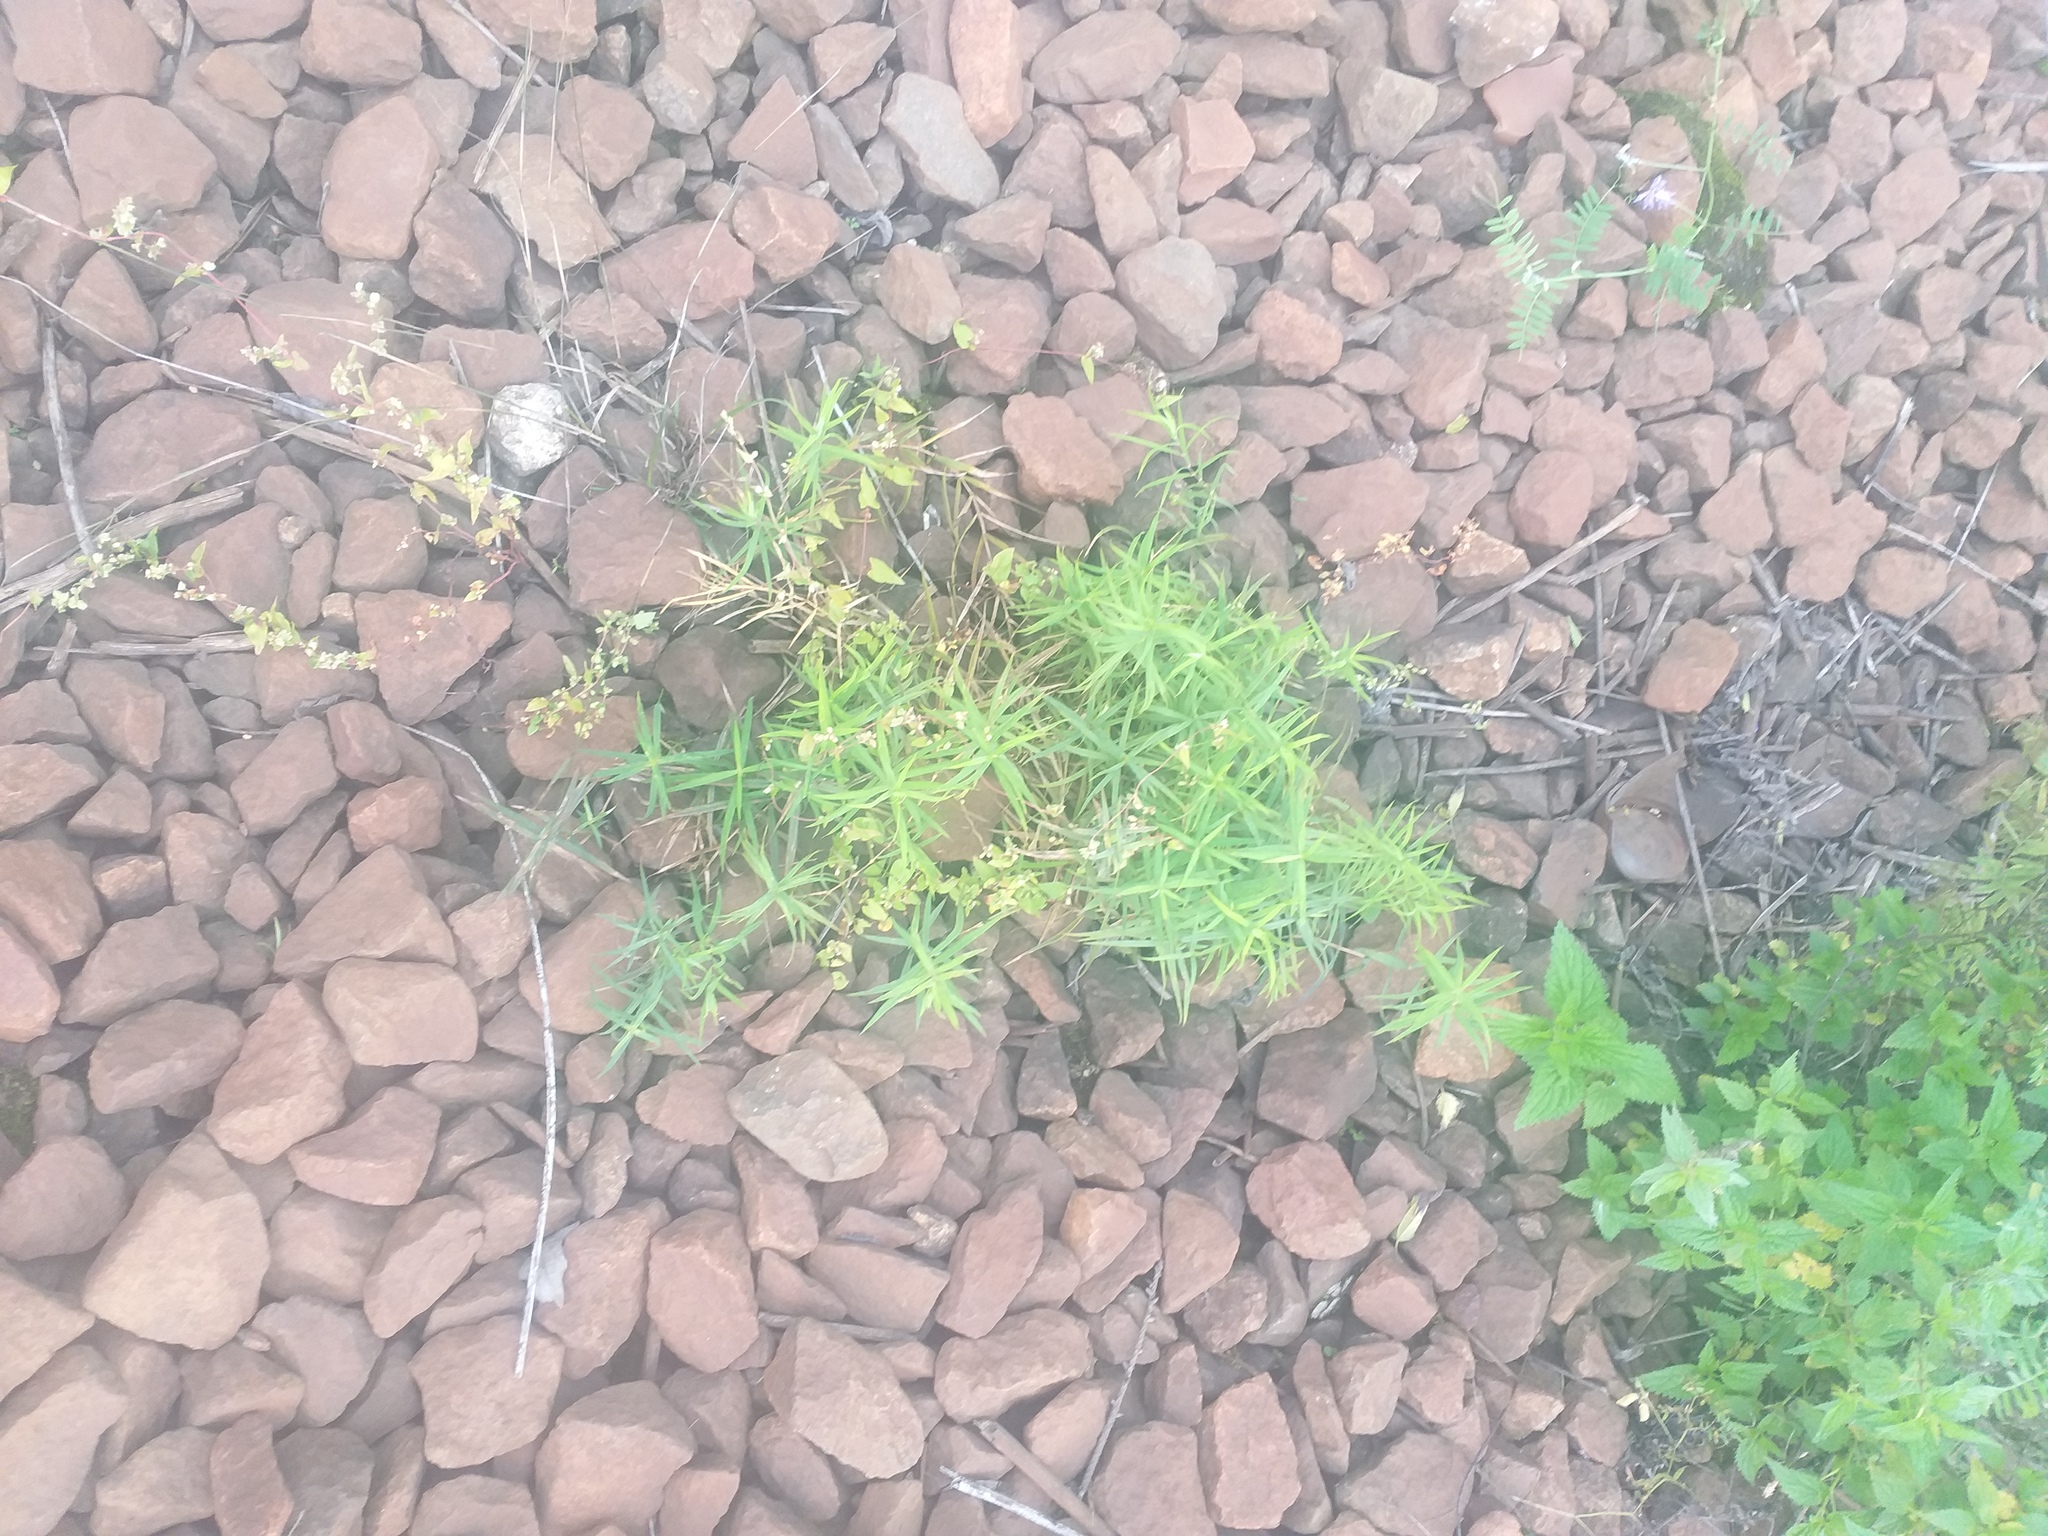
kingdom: Plantae
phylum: Tracheophyta
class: Magnoliopsida
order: Caryophyllales
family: Caryophyllaceae
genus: Rabelera
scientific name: Rabelera holostea
